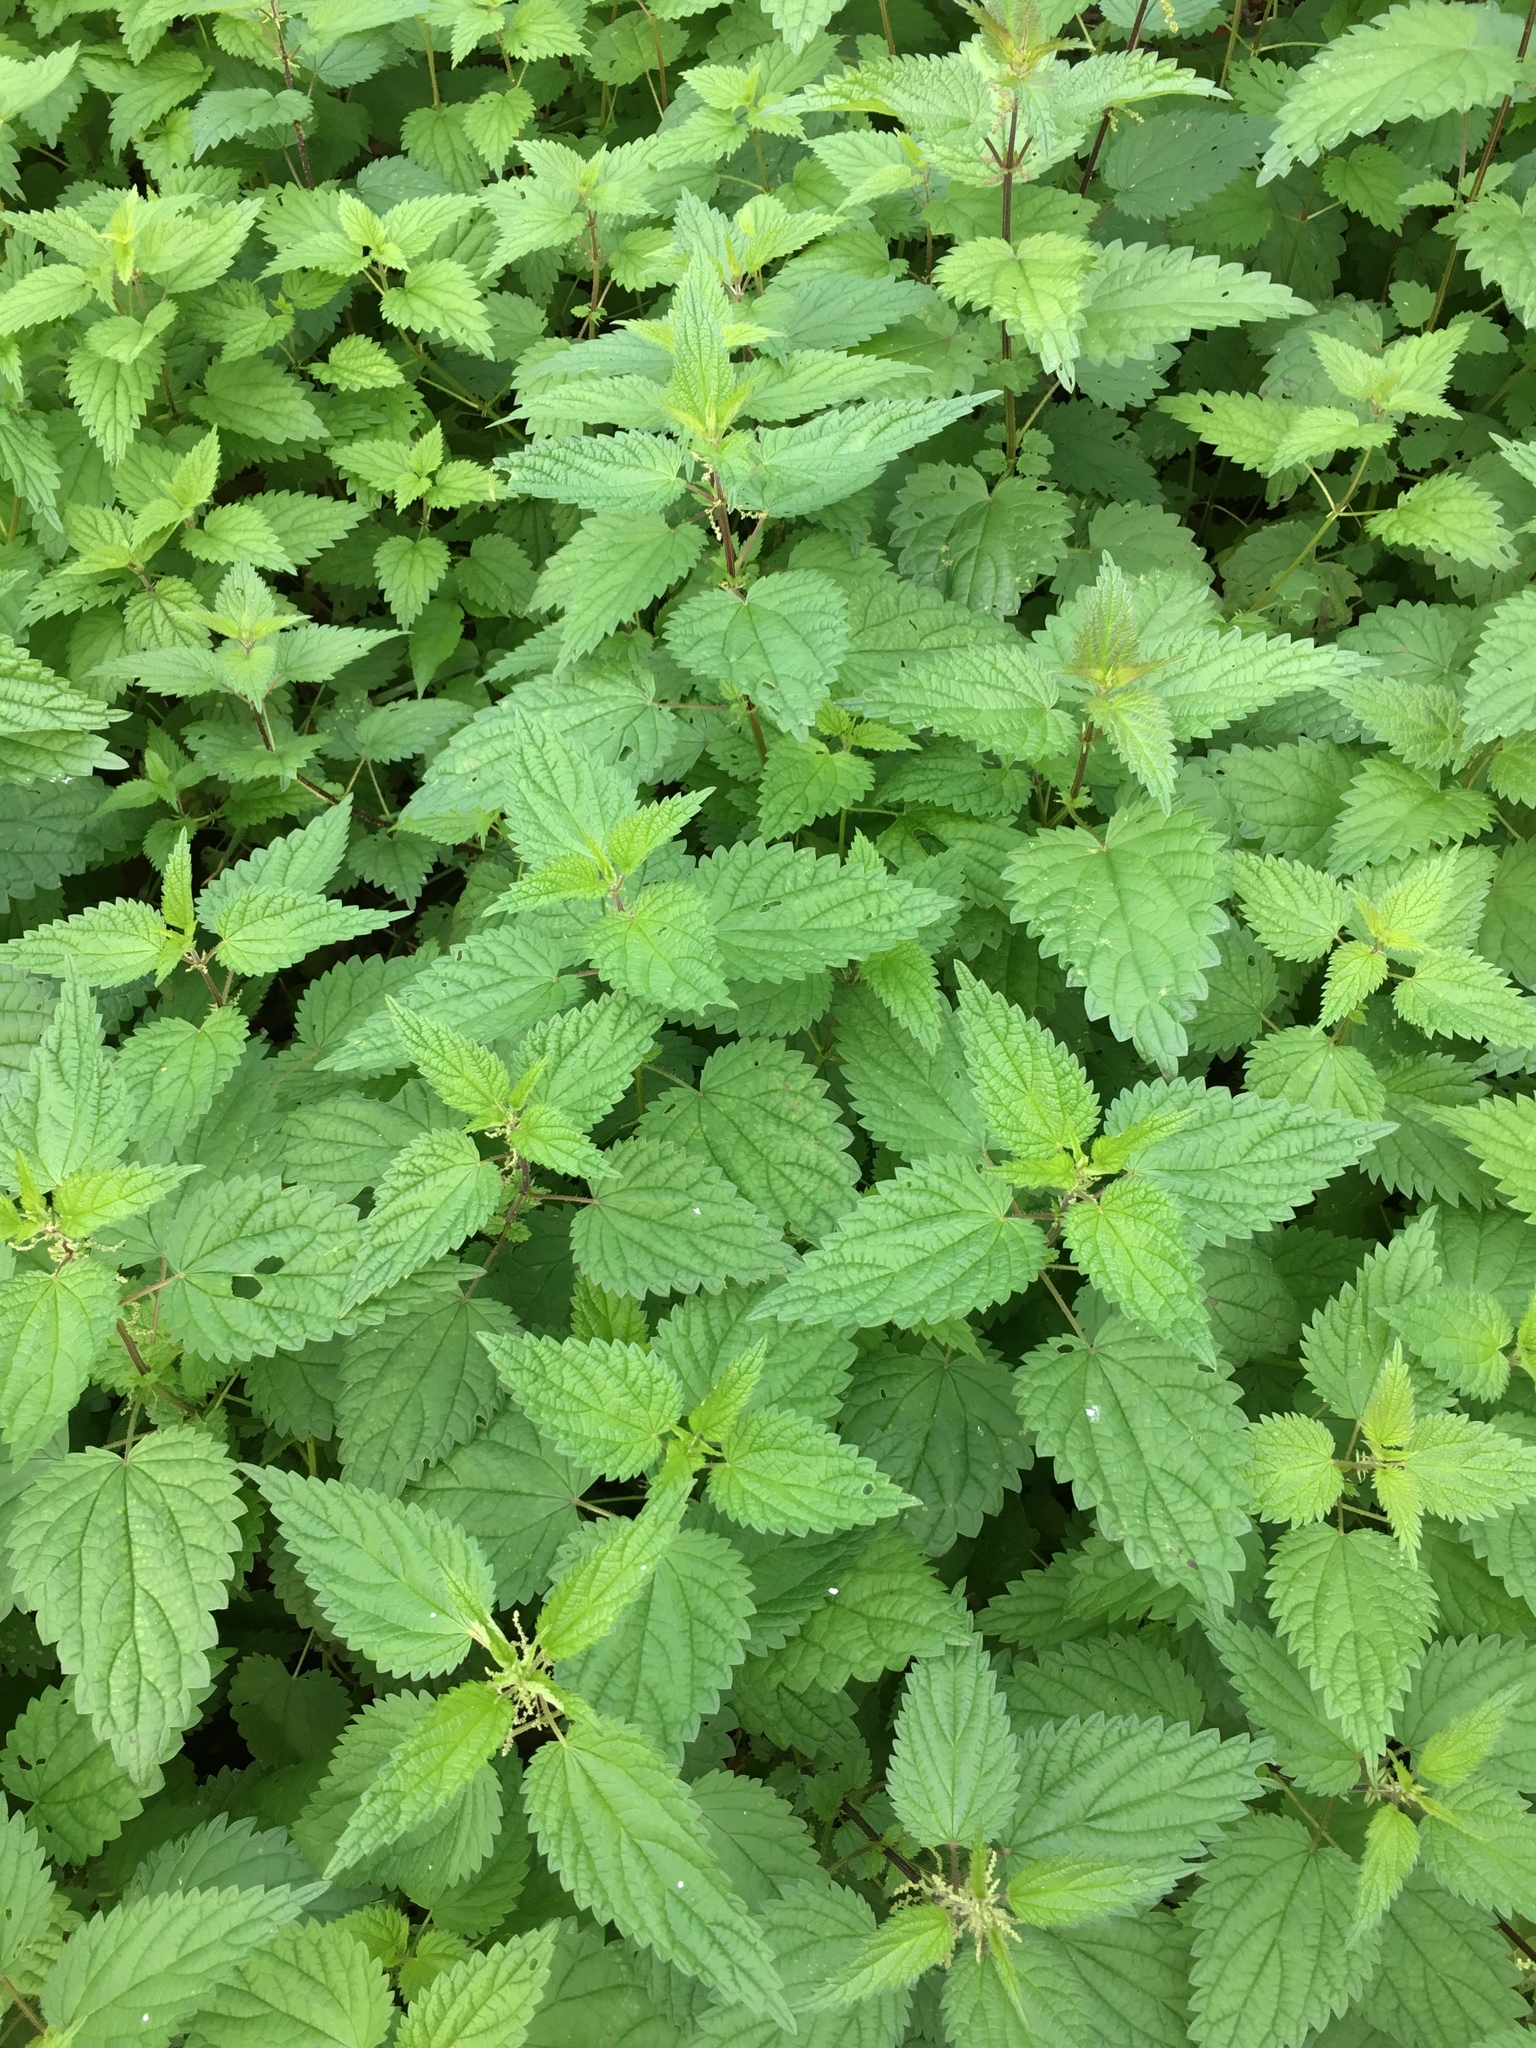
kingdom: Plantae
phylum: Tracheophyta
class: Magnoliopsida
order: Rosales
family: Urticaceae
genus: Urtica
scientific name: Urtica dioica
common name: Common nettle
